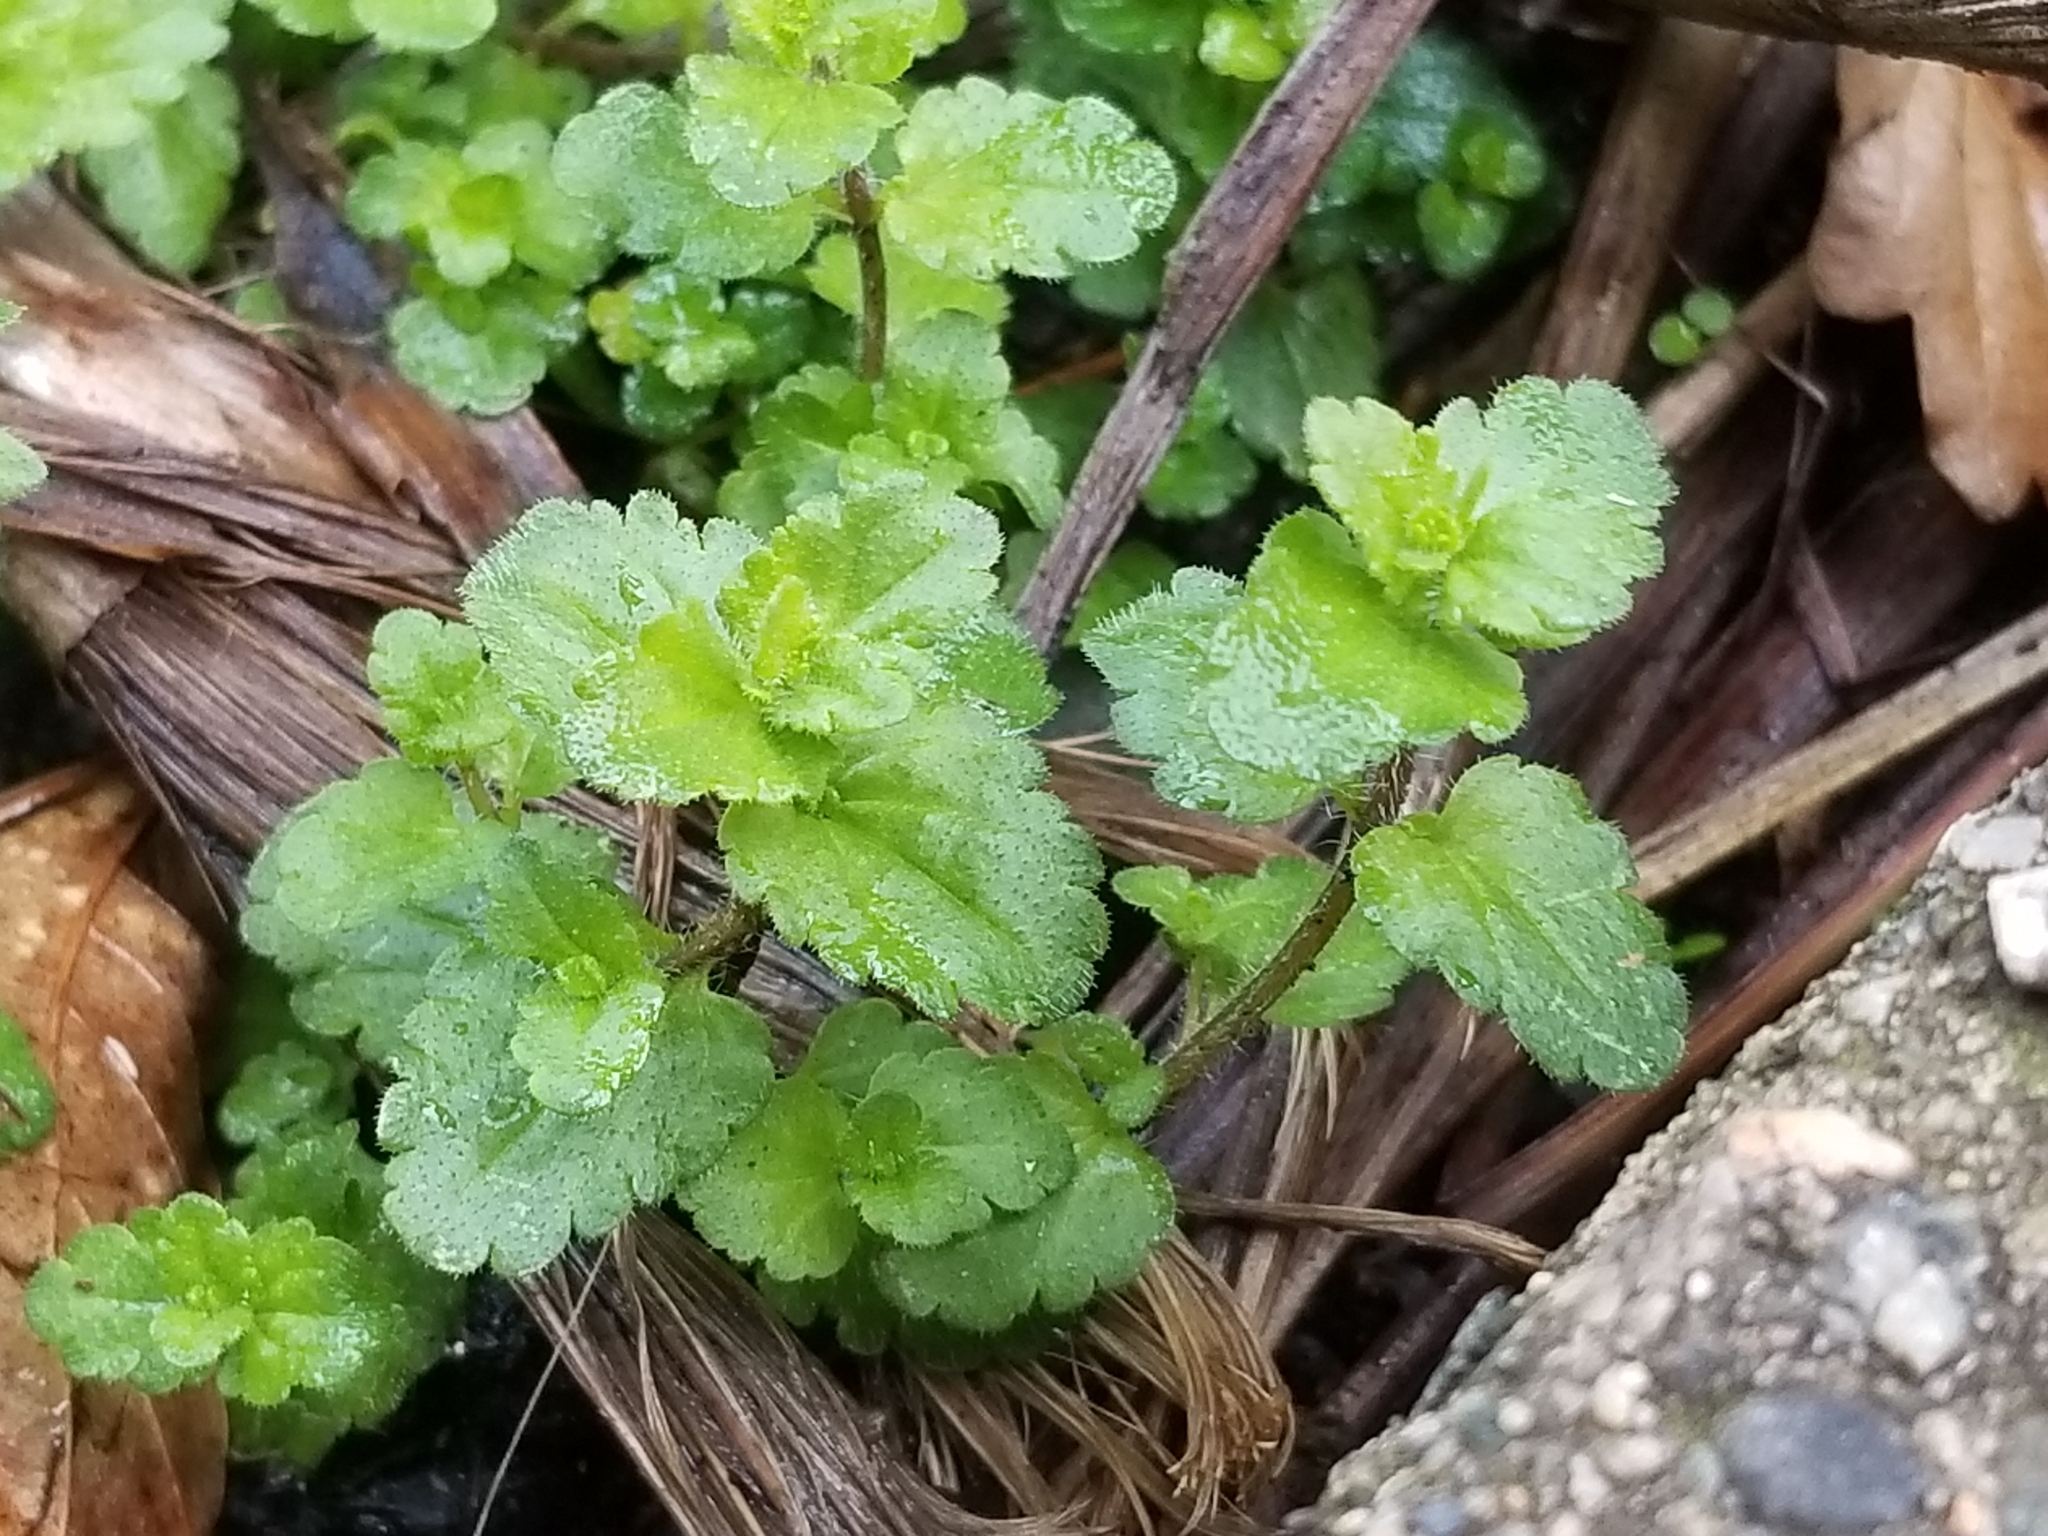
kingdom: Plantae
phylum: Tracheophyta
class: Magnoliopsida
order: Lamiales
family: Plantaginaceae
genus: Veronica
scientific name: Veronica persica
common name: Common field-speedwell
